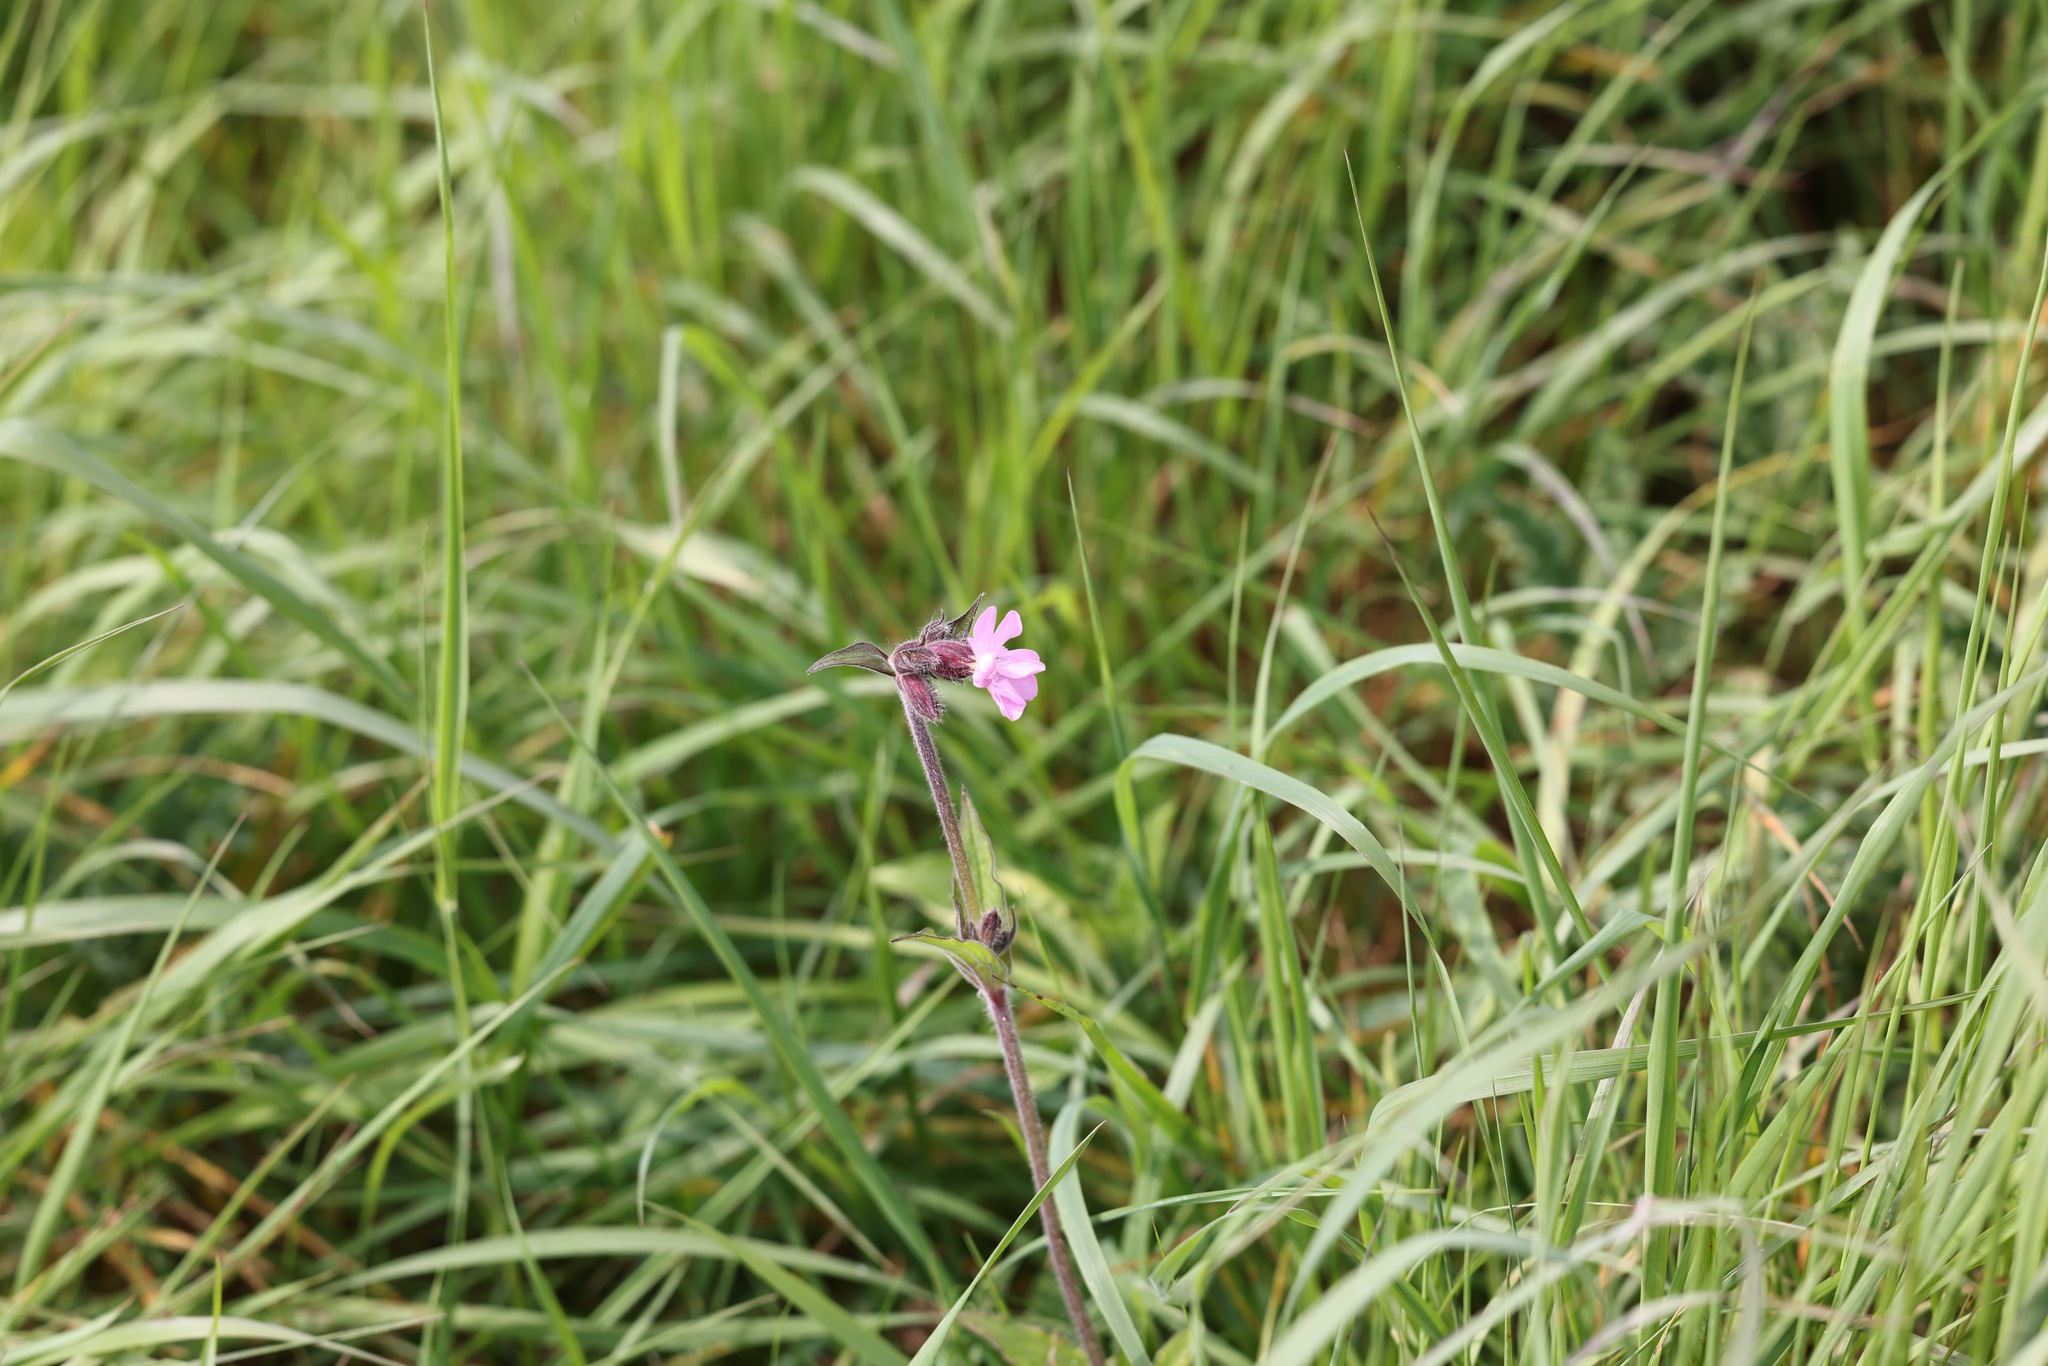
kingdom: Plantae
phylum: Tracheophyta
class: Magnoliopsida
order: Caryophyllales
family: Caryophyllaceae
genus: Silene
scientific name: Silene dioica
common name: Red campion
